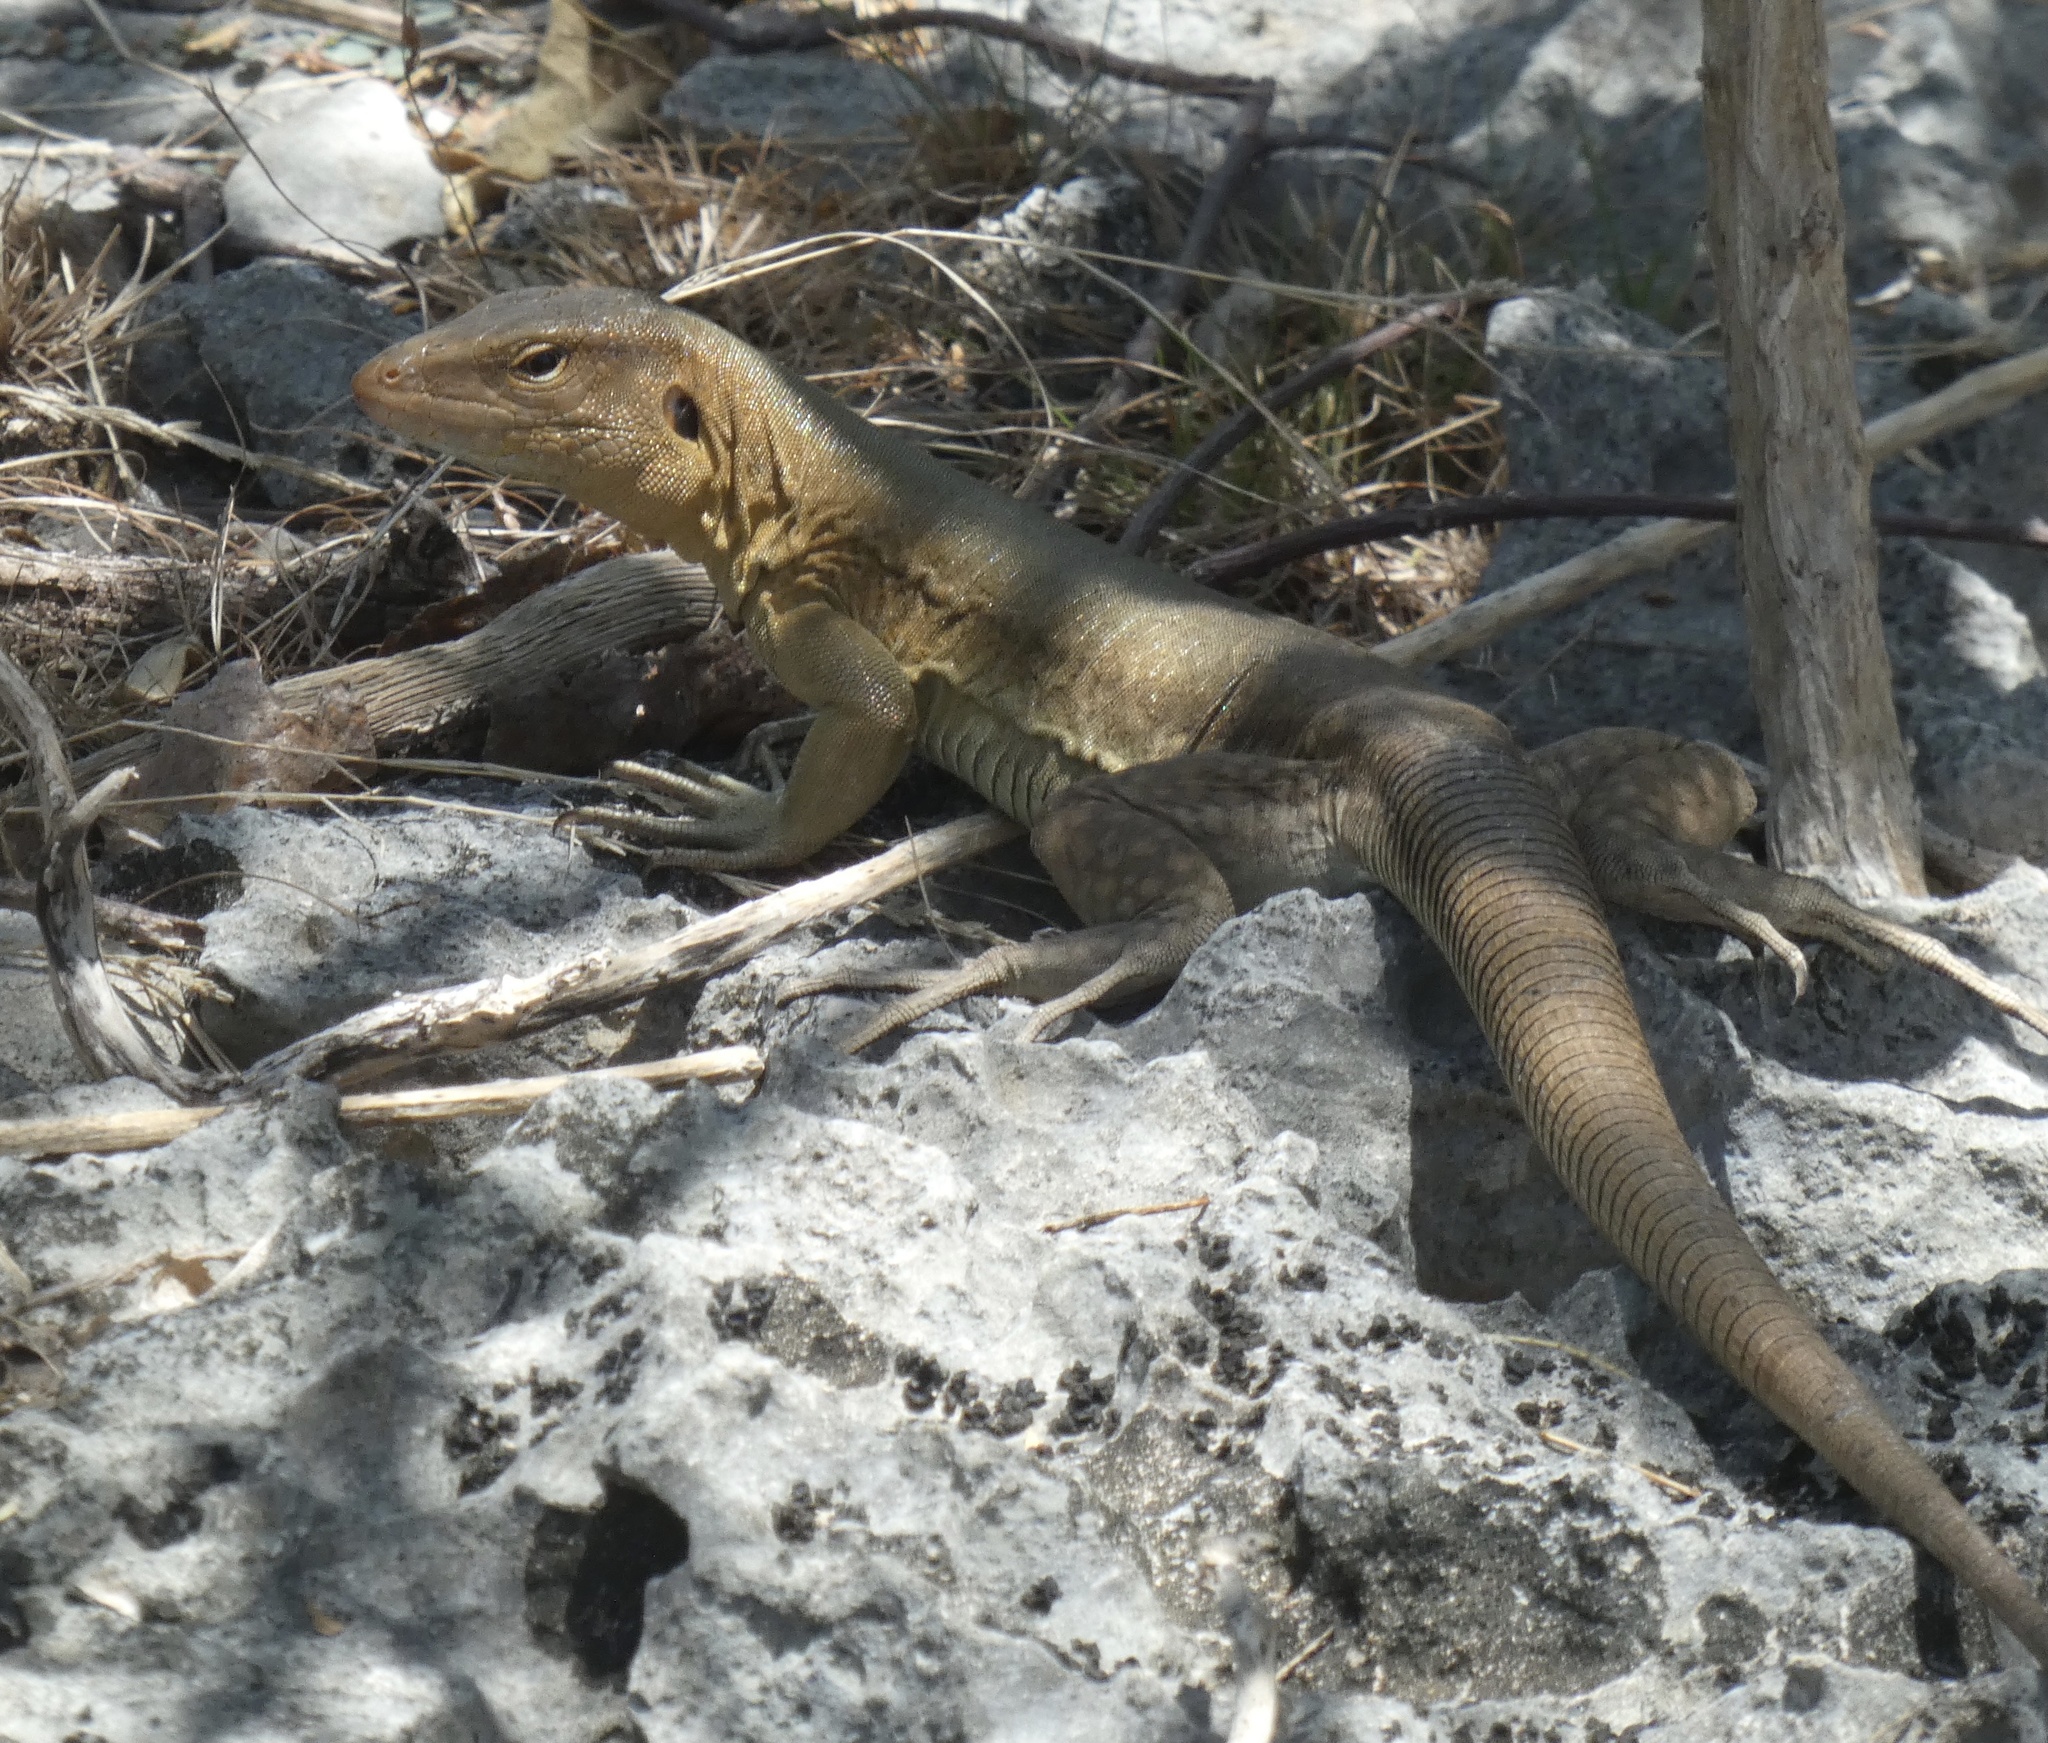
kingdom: Animalia
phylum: Chordata
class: Squamata
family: Teiidae
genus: Cnemidophorus
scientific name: Cnemidophorus ruthveni
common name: Bonaire whiptail
